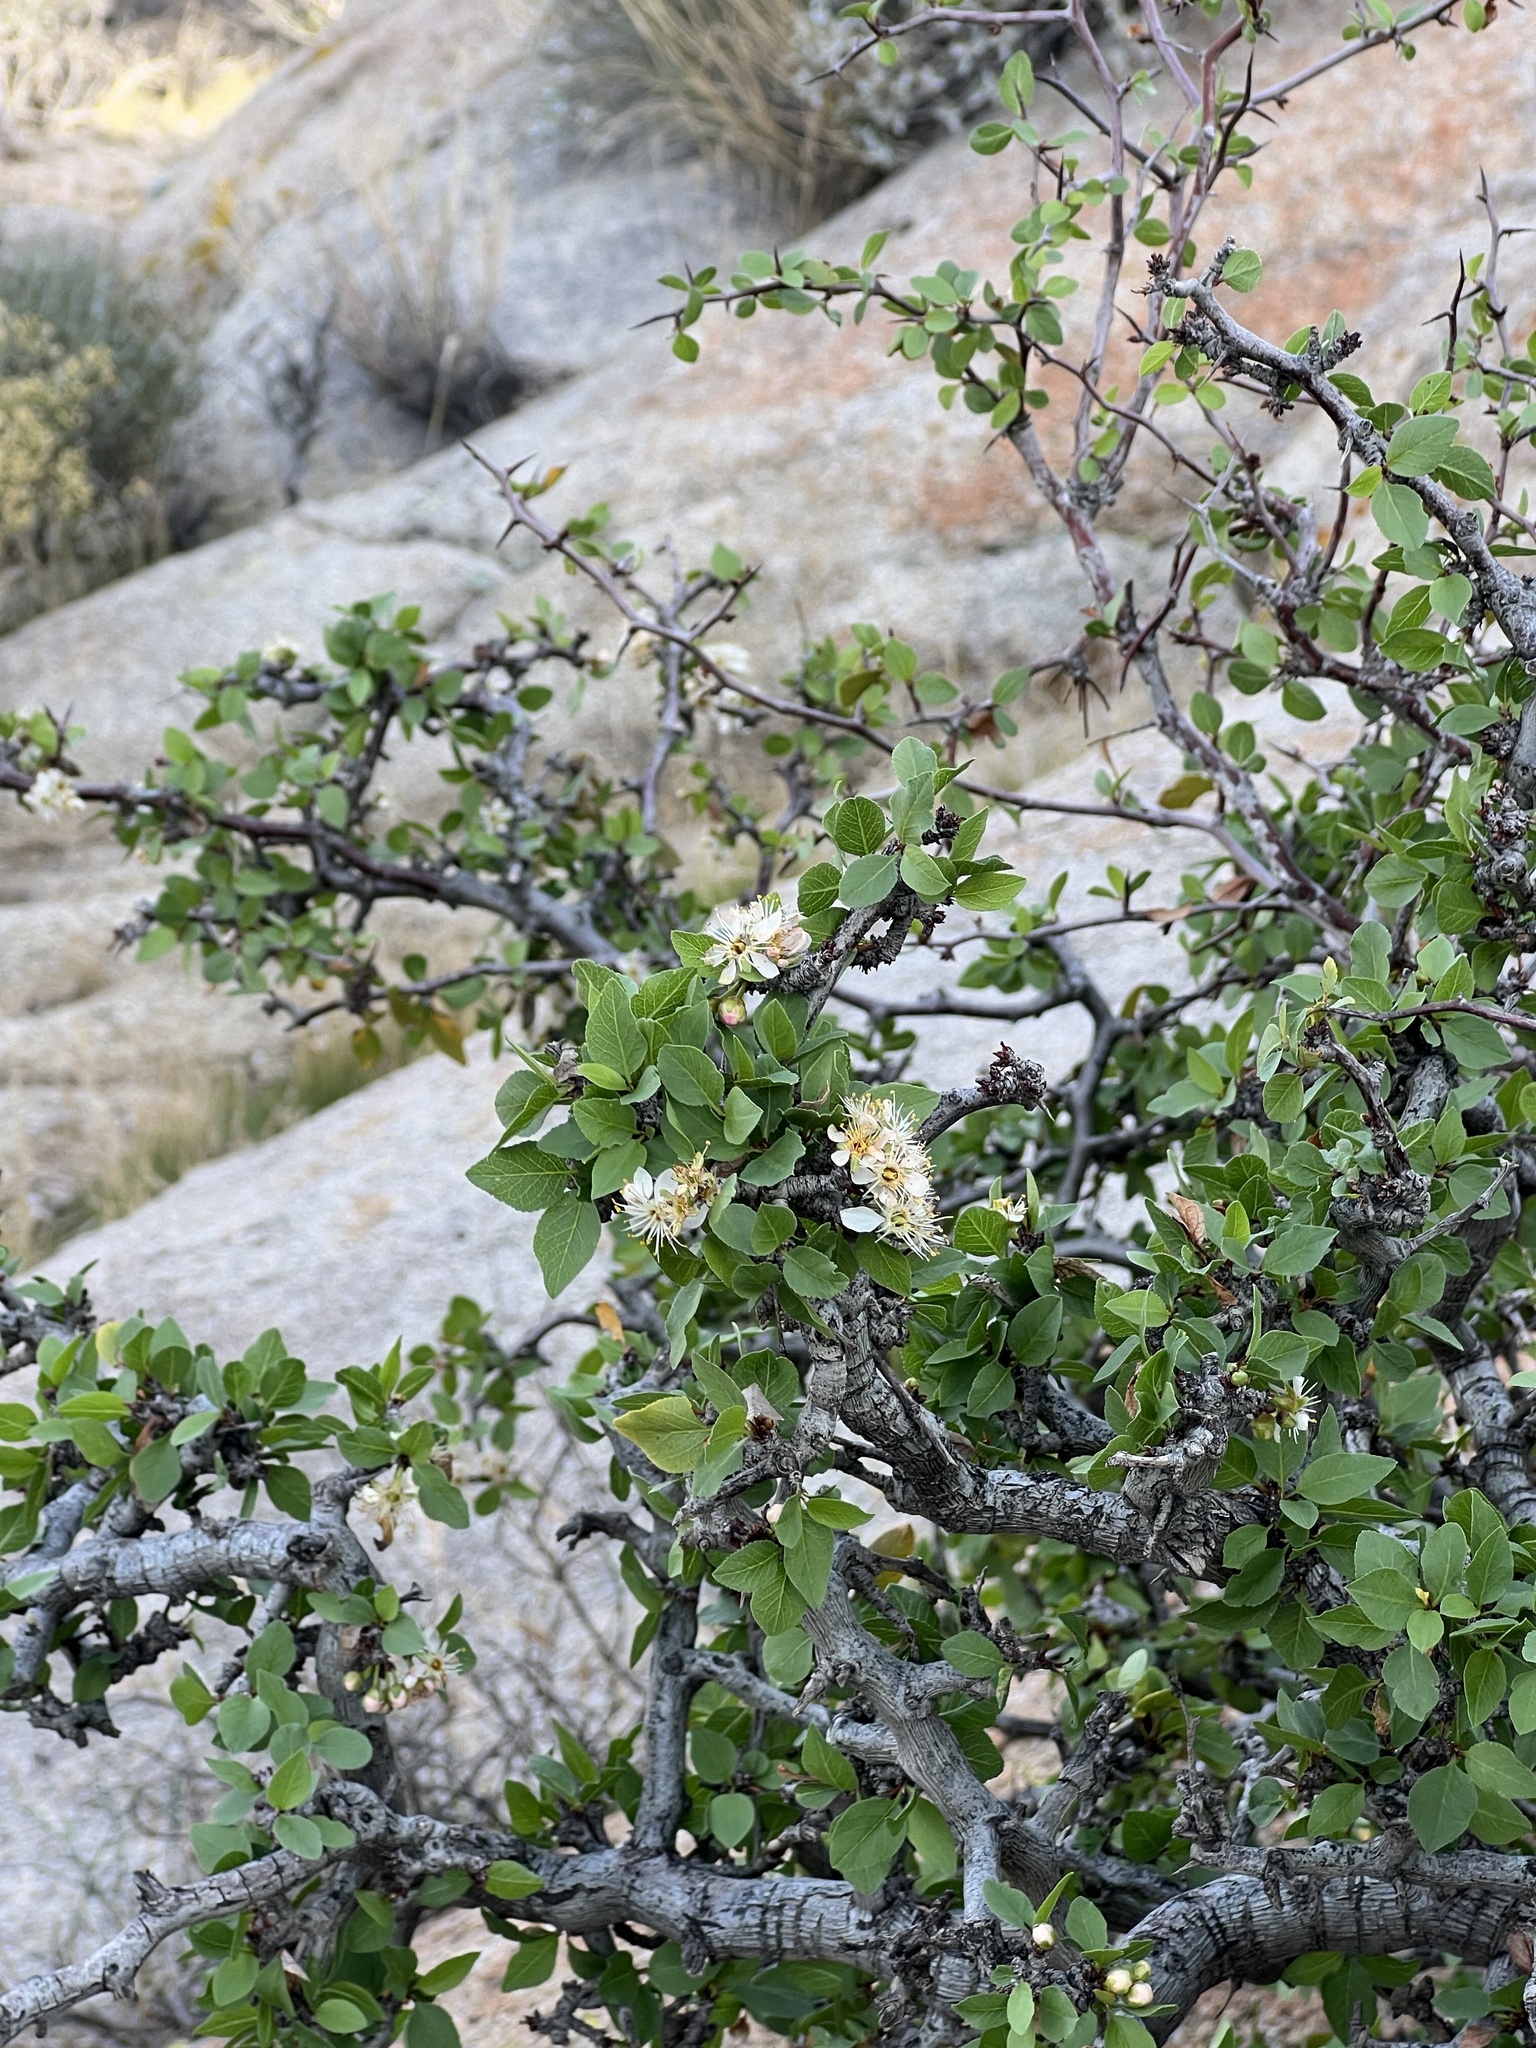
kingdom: Plantae
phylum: Tracheophyta
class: Magnoliopsida
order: Rosales
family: Rosaceae
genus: Prunus
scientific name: Prunus fremontii
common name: Desert apricot
